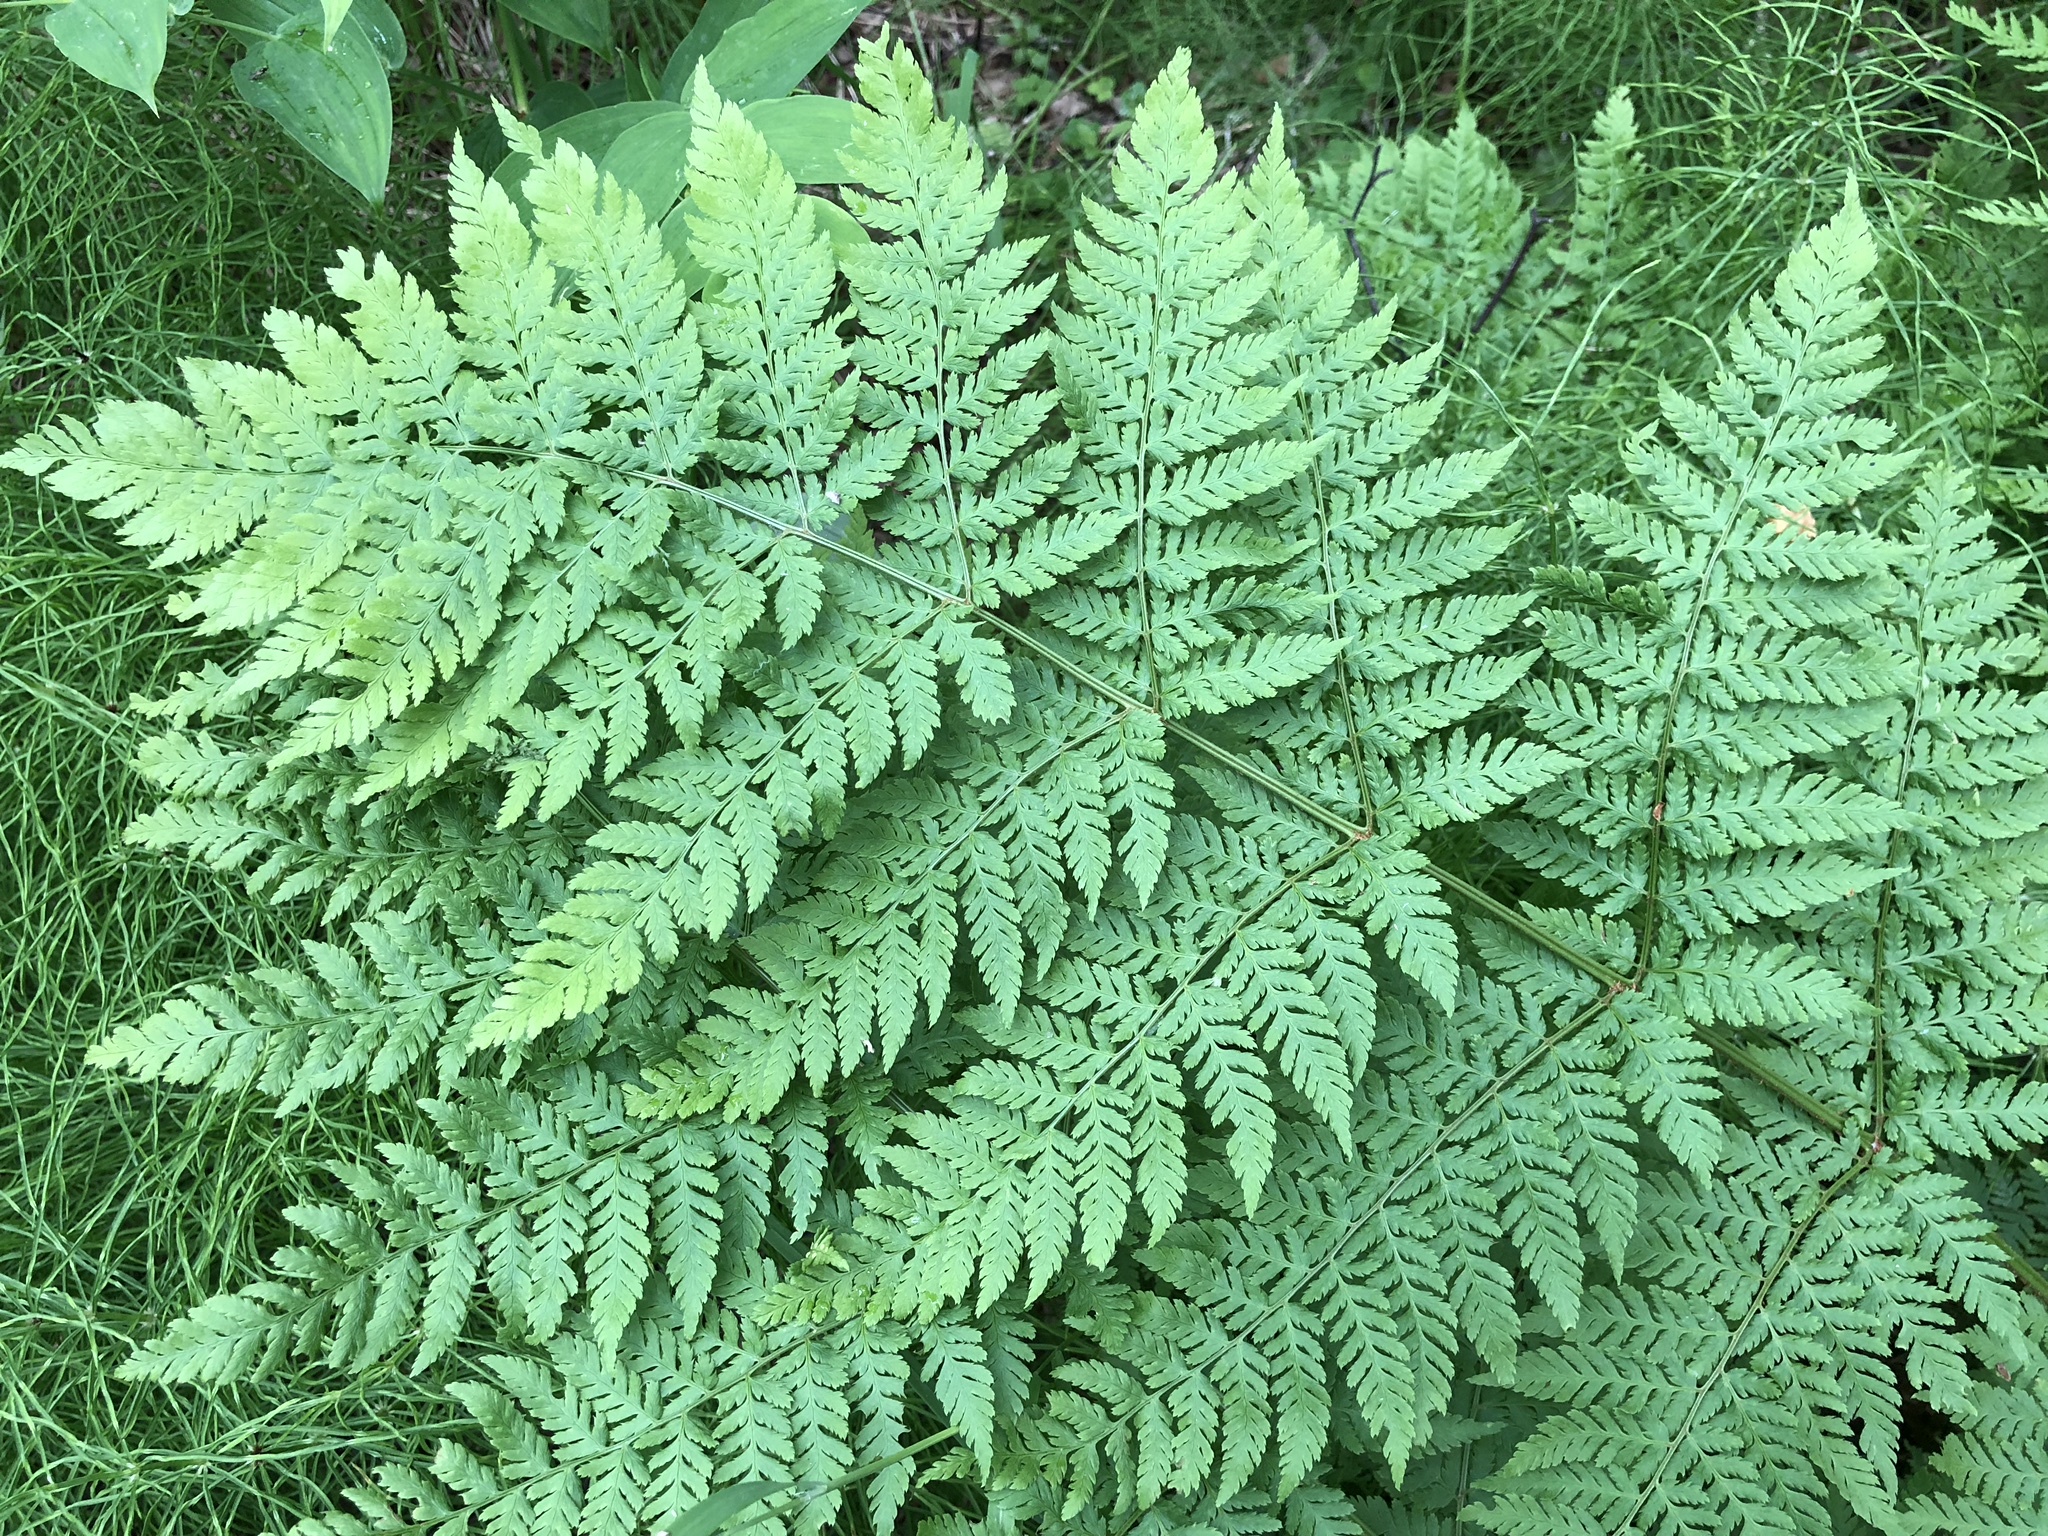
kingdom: Plantae
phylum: Tracheophyta
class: Polypodiopsida
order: Polypodiales
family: Dryopteridaceae
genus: Dryopteris
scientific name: Dryopteris expansa
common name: Northern buckler fern
